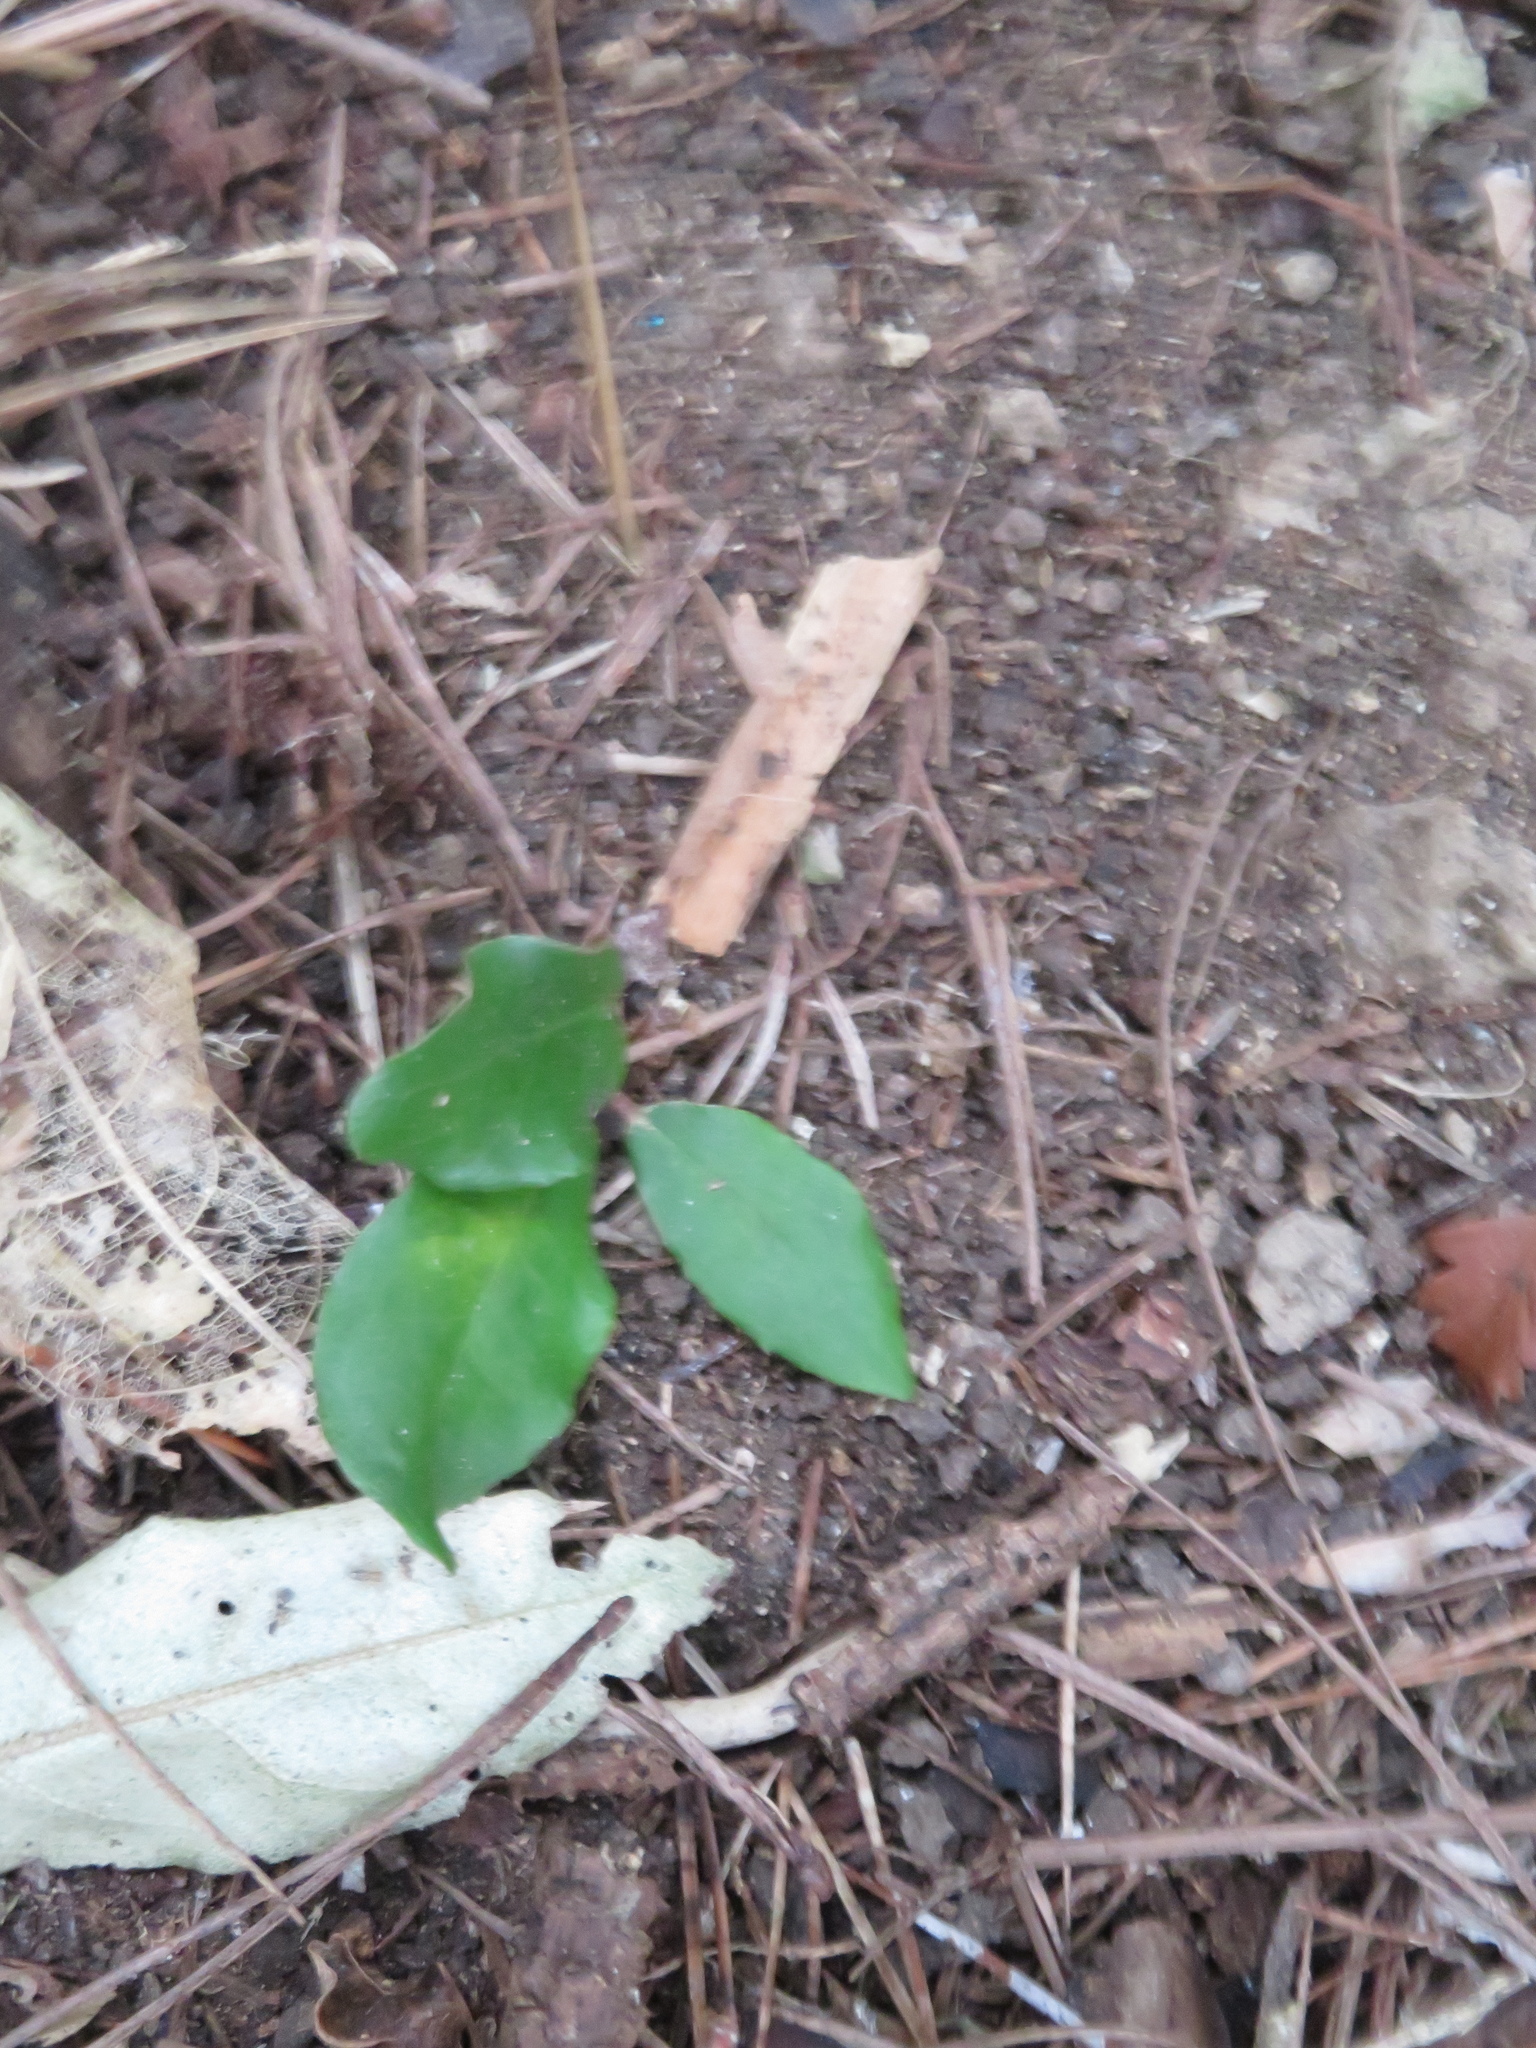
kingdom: Plantae
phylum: Tracheophyta
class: Magnoliopsida
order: Rosales
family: Elaeagnaceae
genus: Elaeagnus
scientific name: Elaeagnus reflexa
